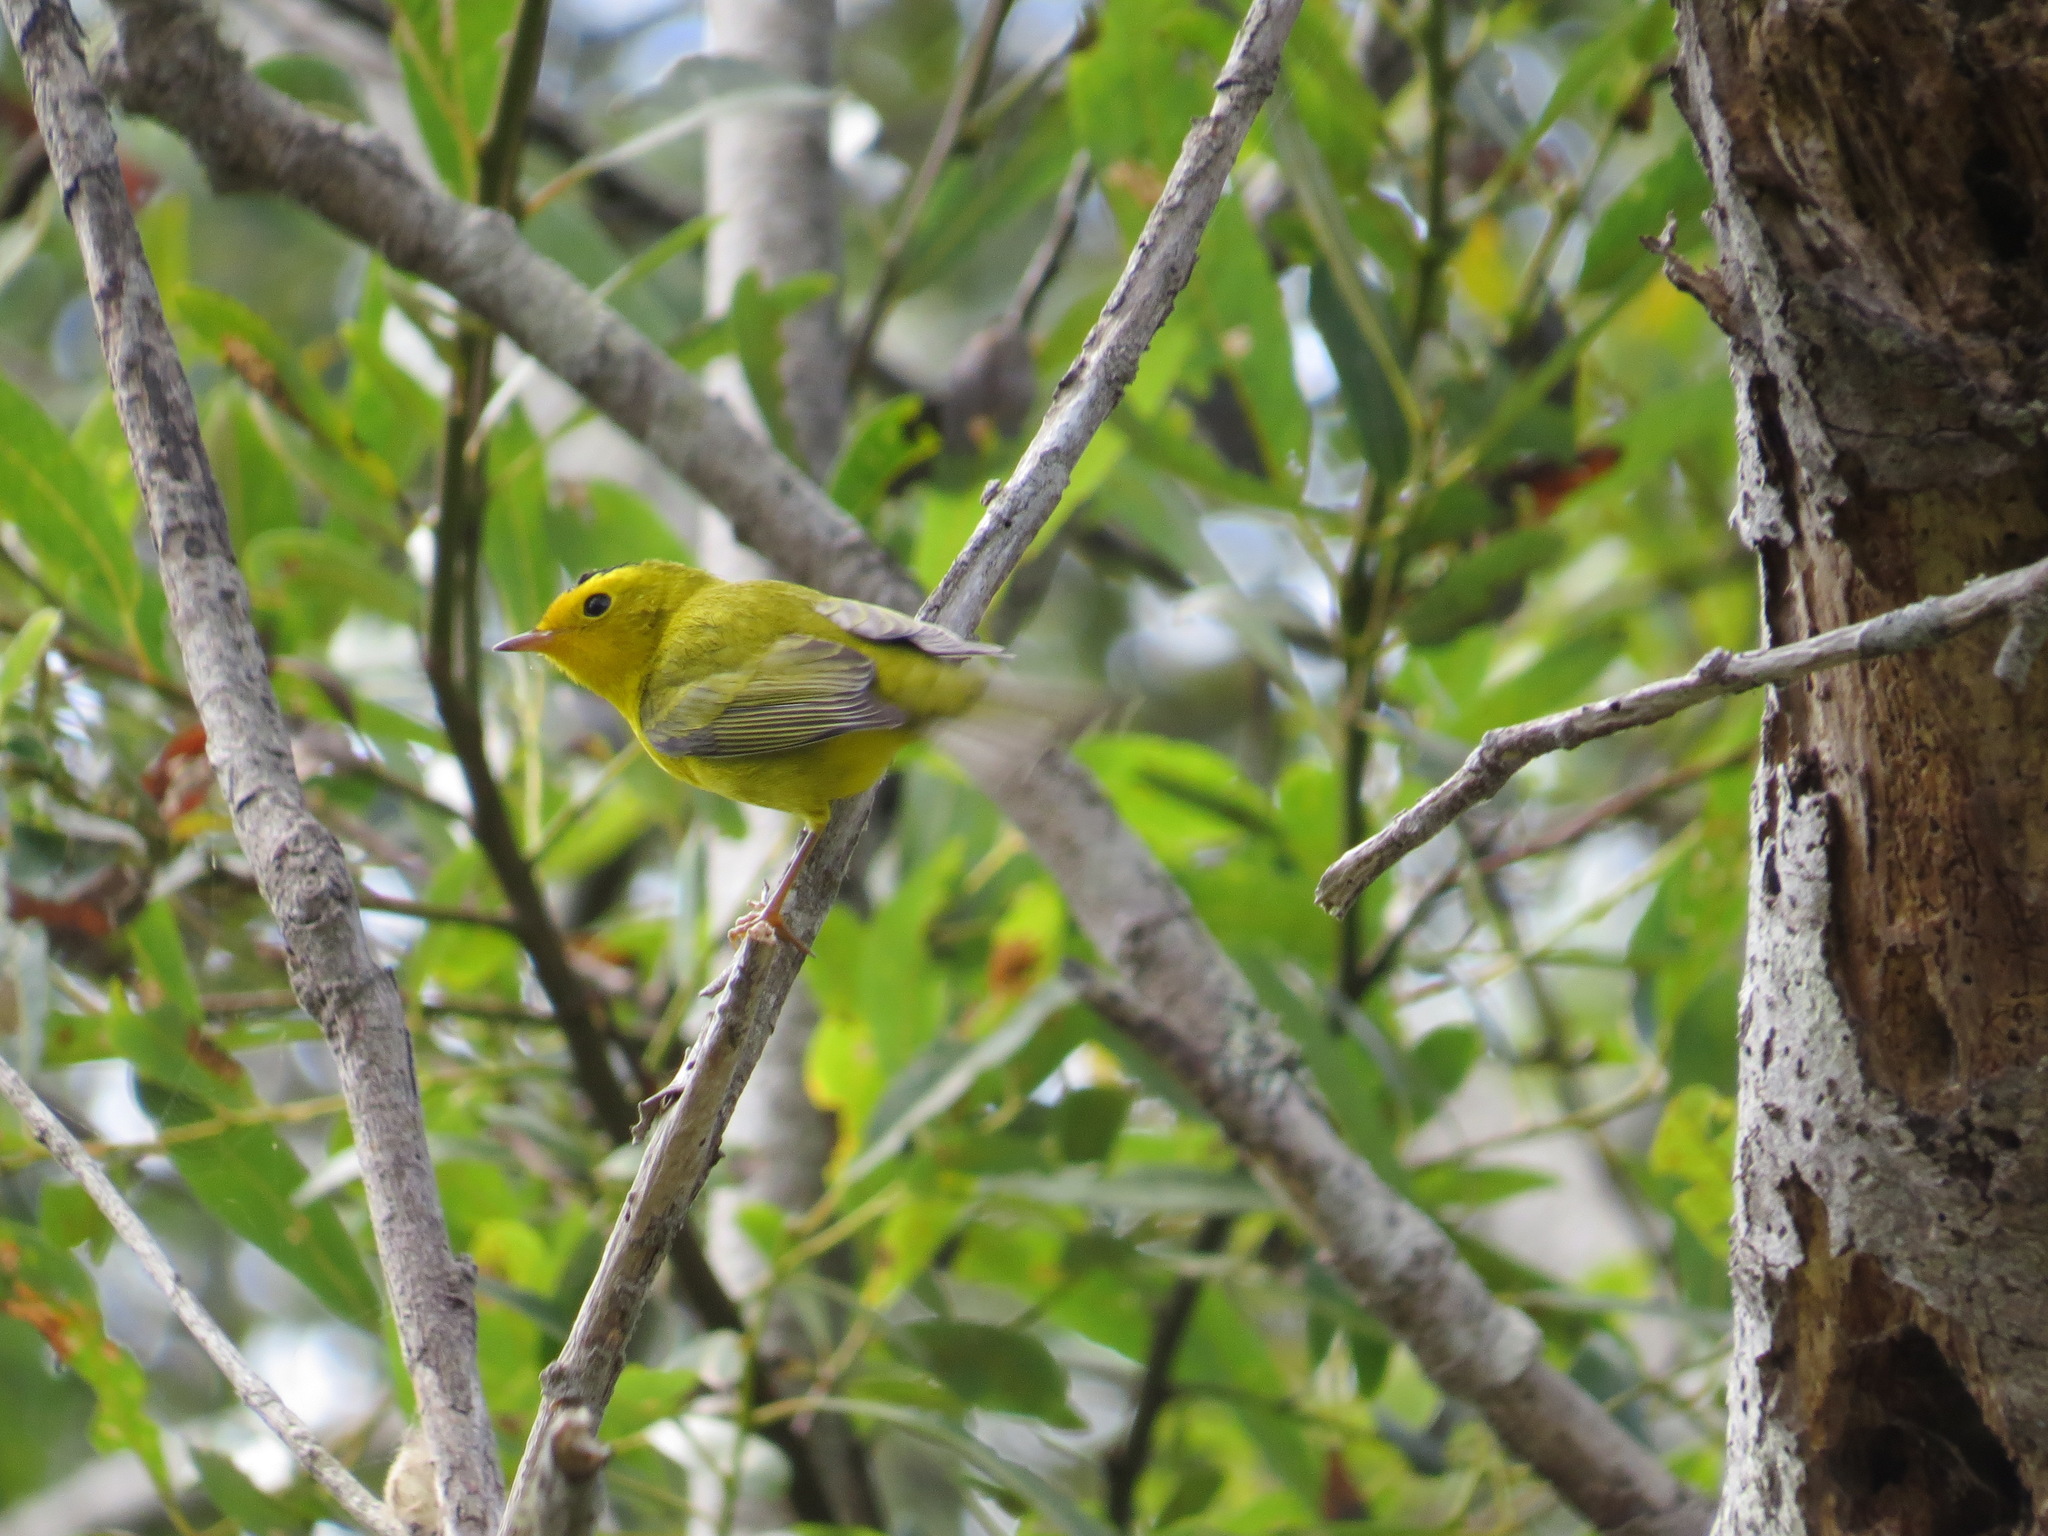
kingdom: Animalia
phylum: Chordata
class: Aves
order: Passeriformes
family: Parulidae
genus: Cardellina
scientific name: Cardellina pusilla
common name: Wilson's warbler
